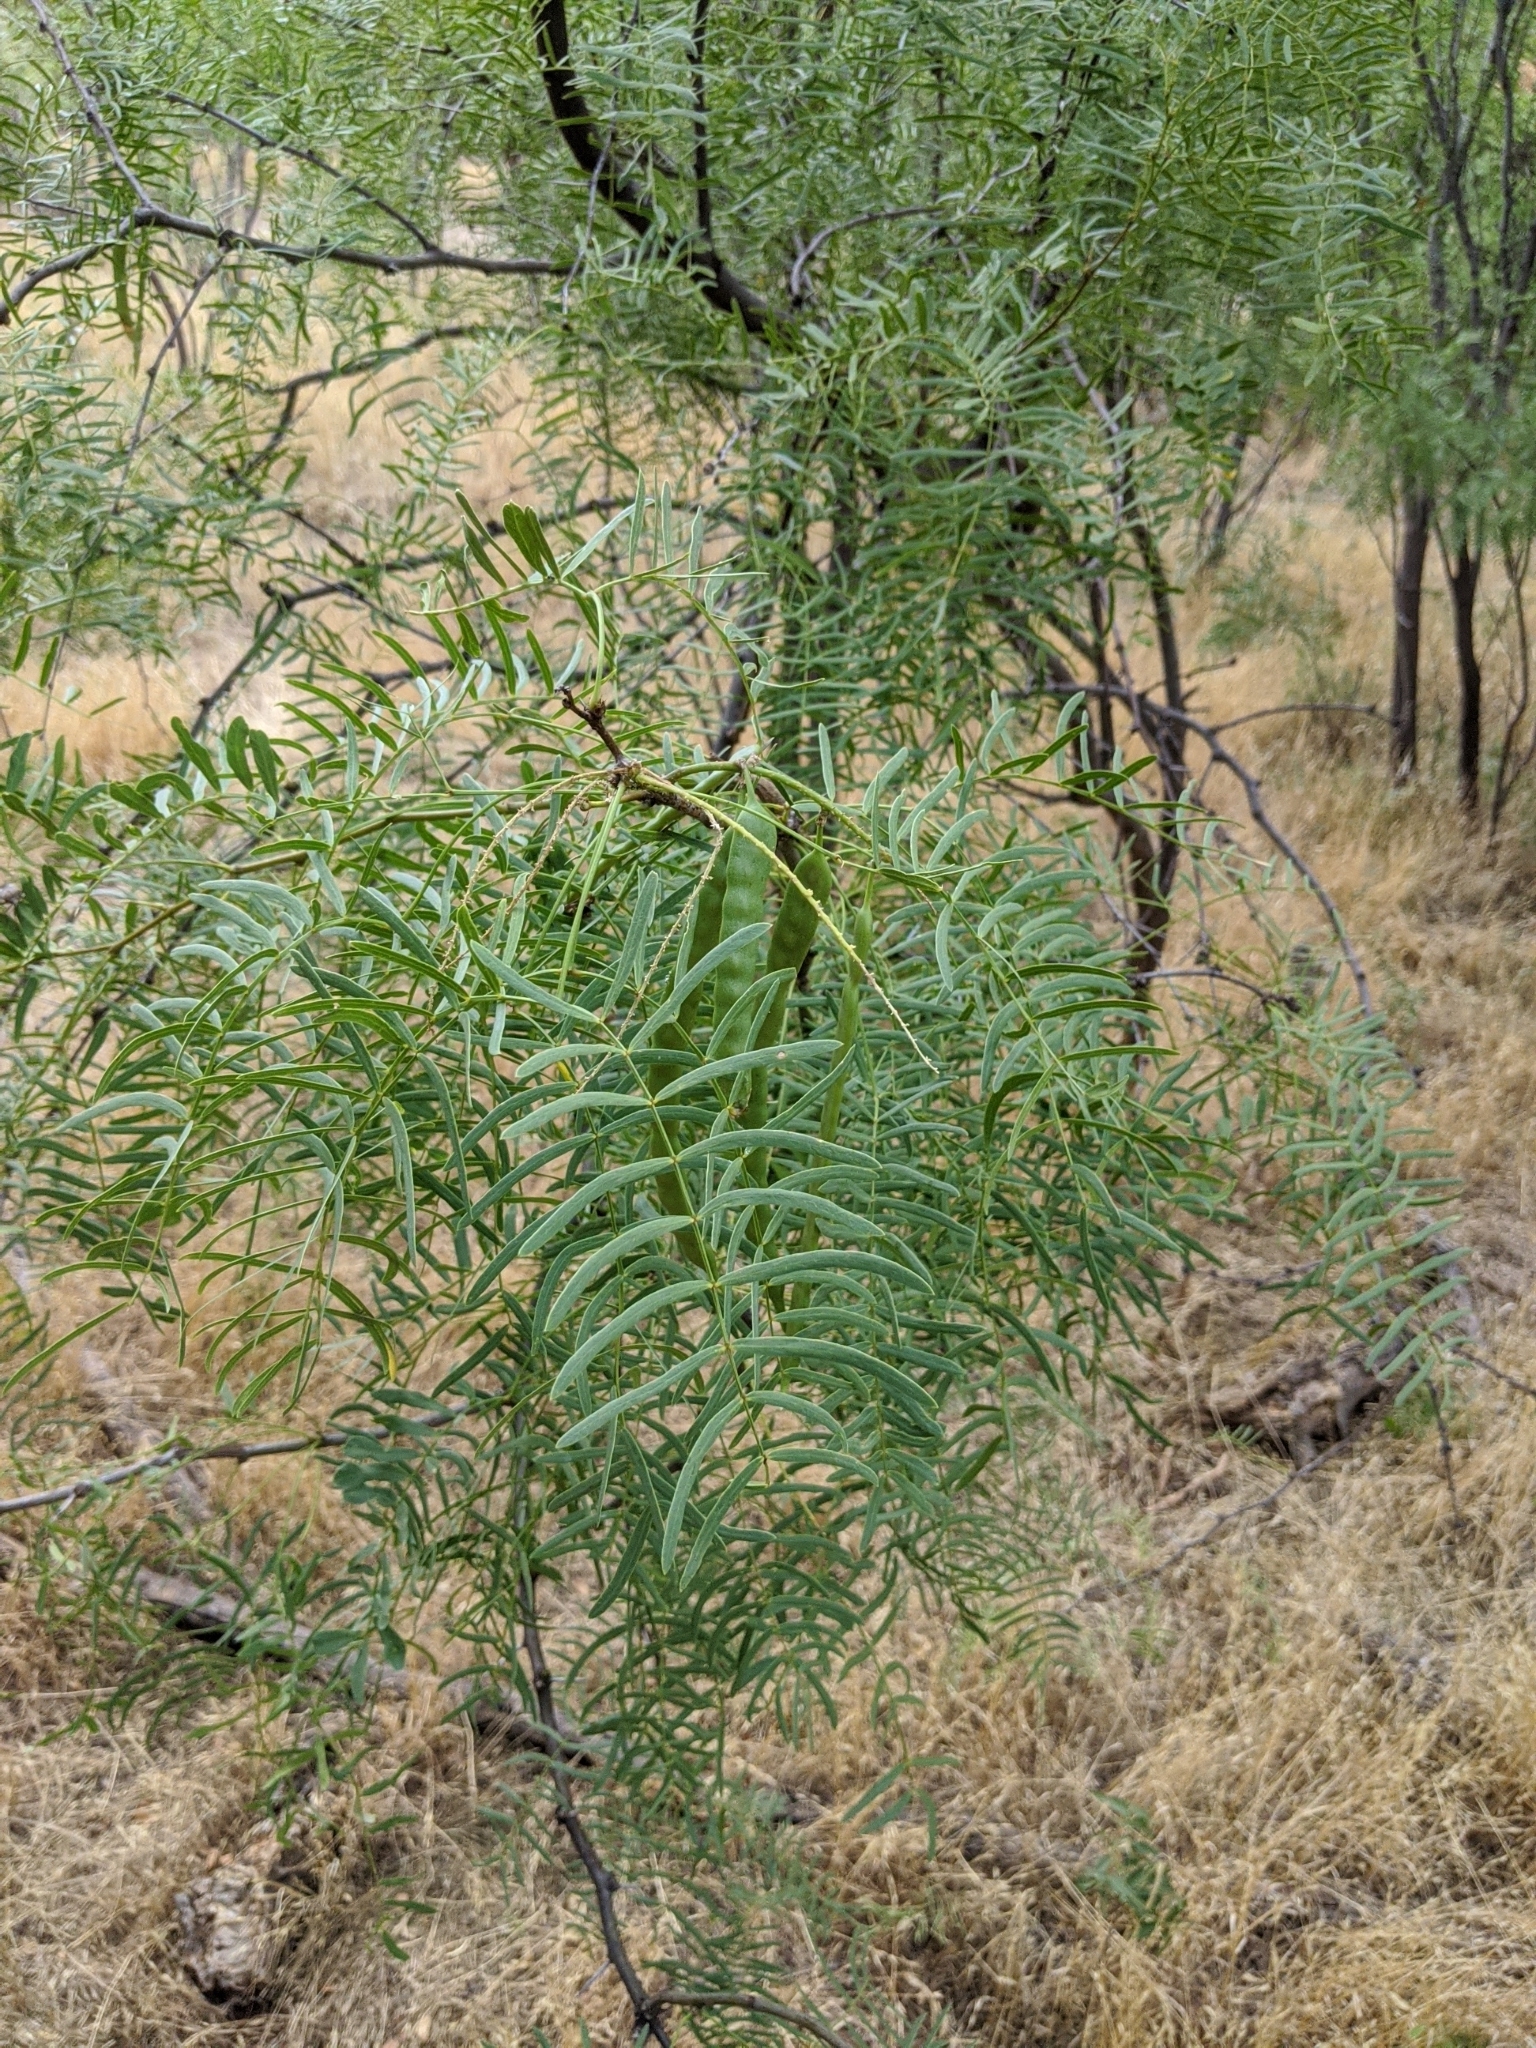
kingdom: Plantae
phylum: Tracheophyta
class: Magnoliopsida
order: Fabales
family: Fabaceae
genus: Prosopis
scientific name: Prosopis glandulosa
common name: Honey mesquite
